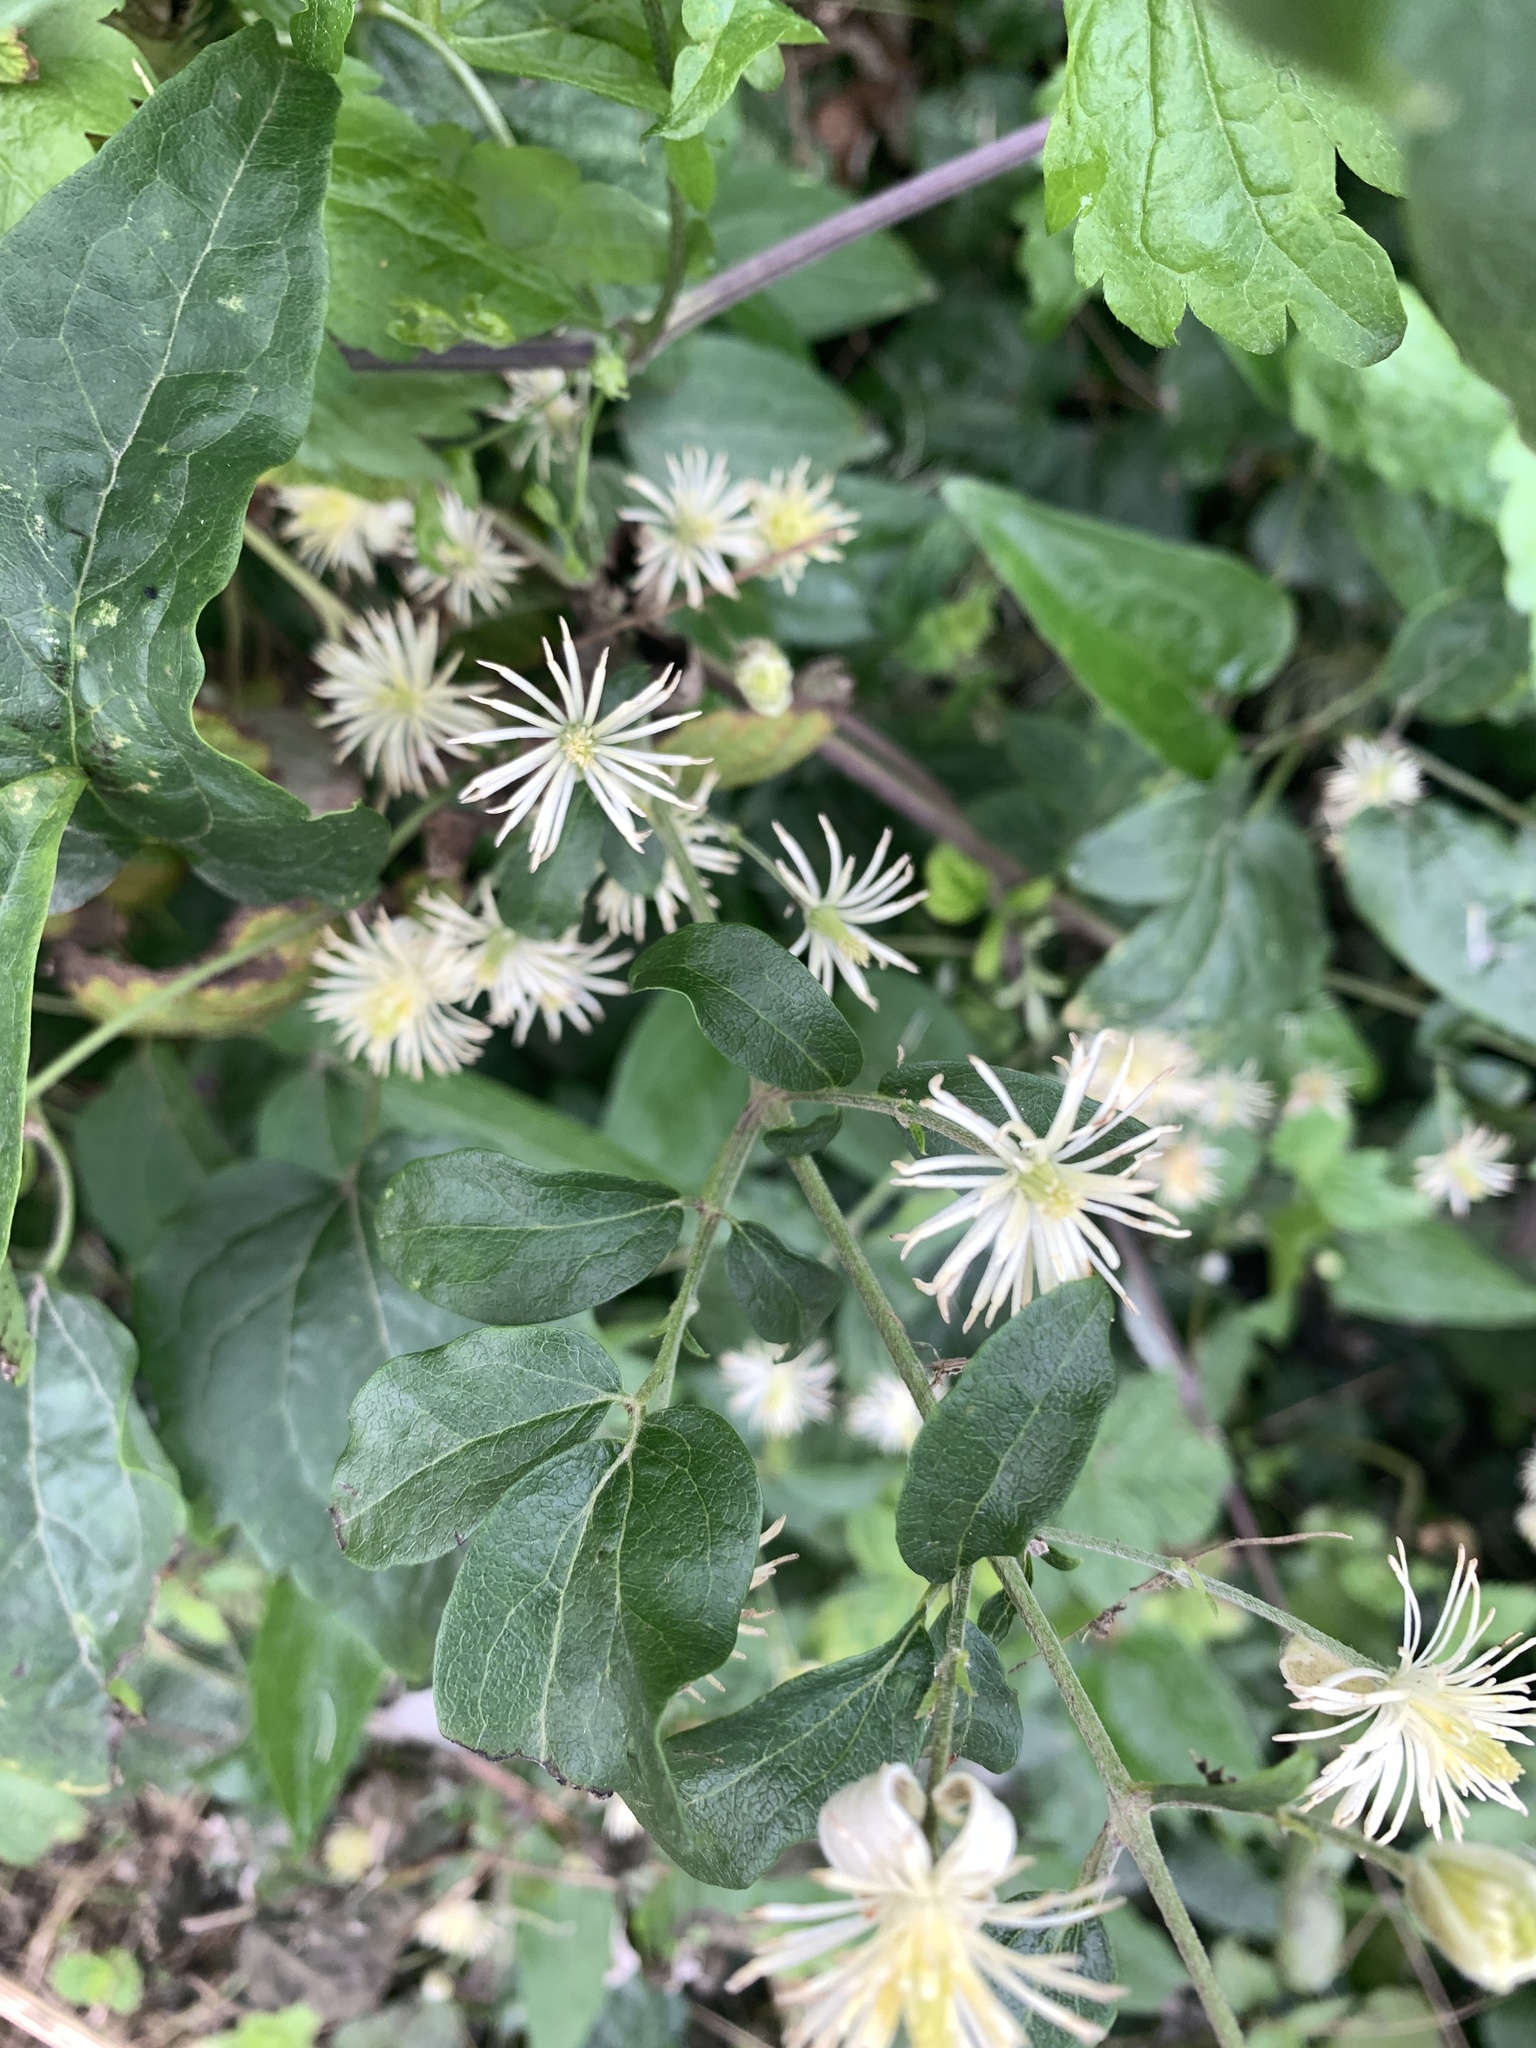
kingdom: Plantae
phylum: Tracheophyta
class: Magnoliopsida
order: Ranunculales
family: Ranunculaceae
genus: Clematis
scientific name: Clematis vitalba
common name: Evergreen clematis
